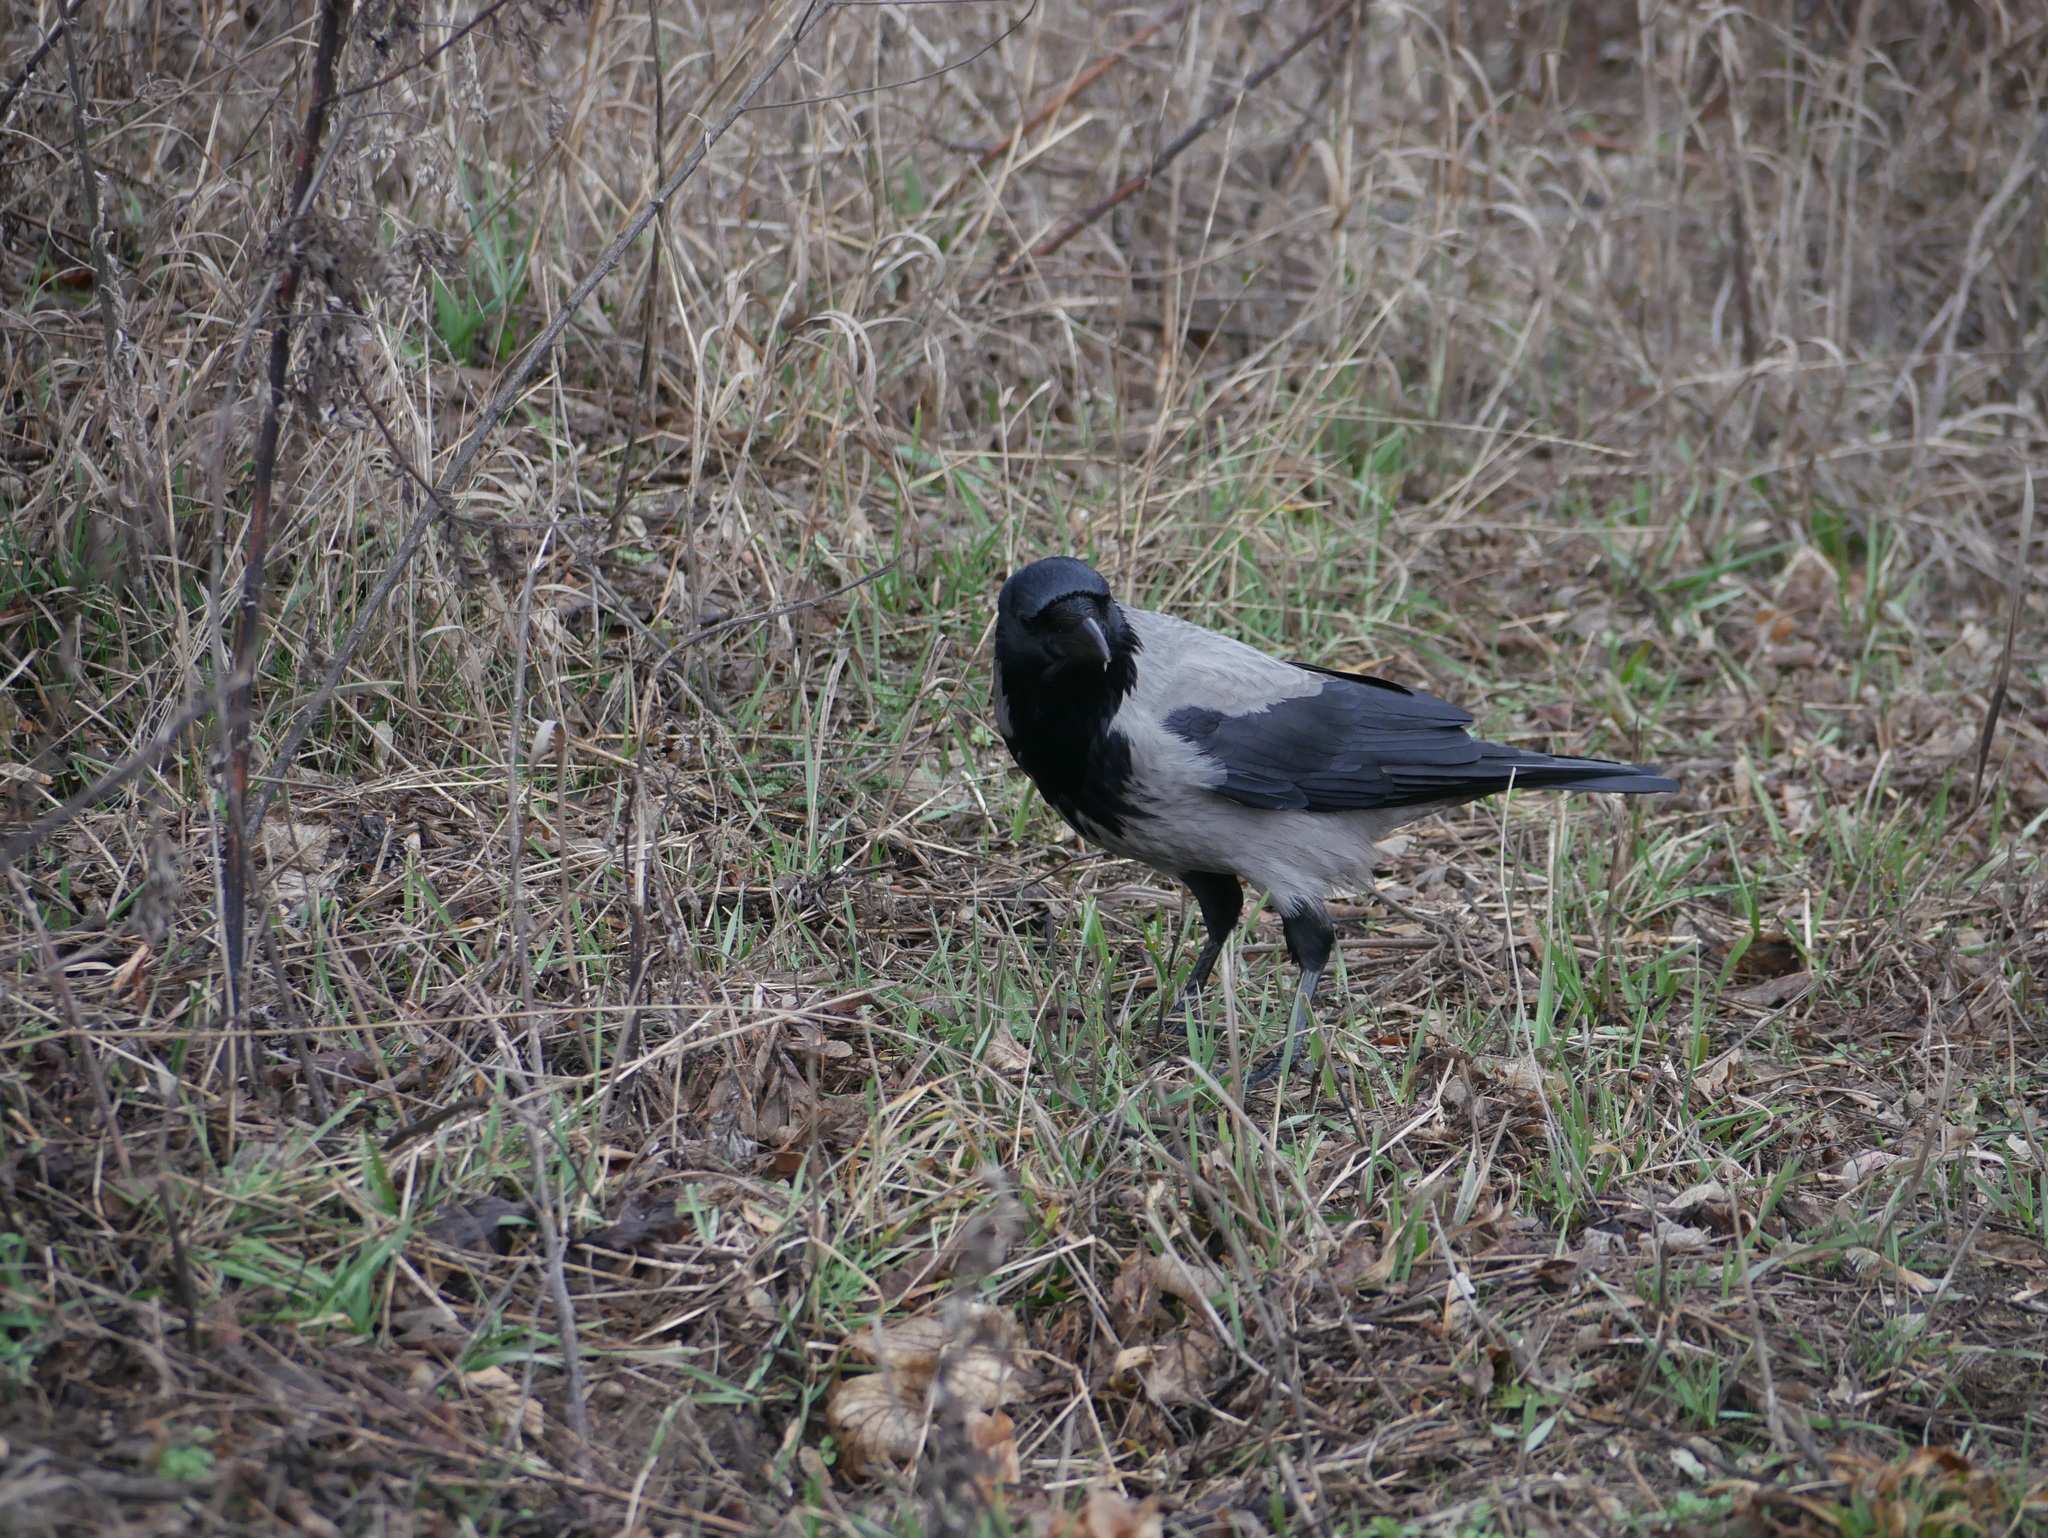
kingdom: Animalia
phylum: Chordata
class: Aves
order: Passeriformes
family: Corvidae
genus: Corvus
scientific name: Corvus cornix
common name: Hooded crow
